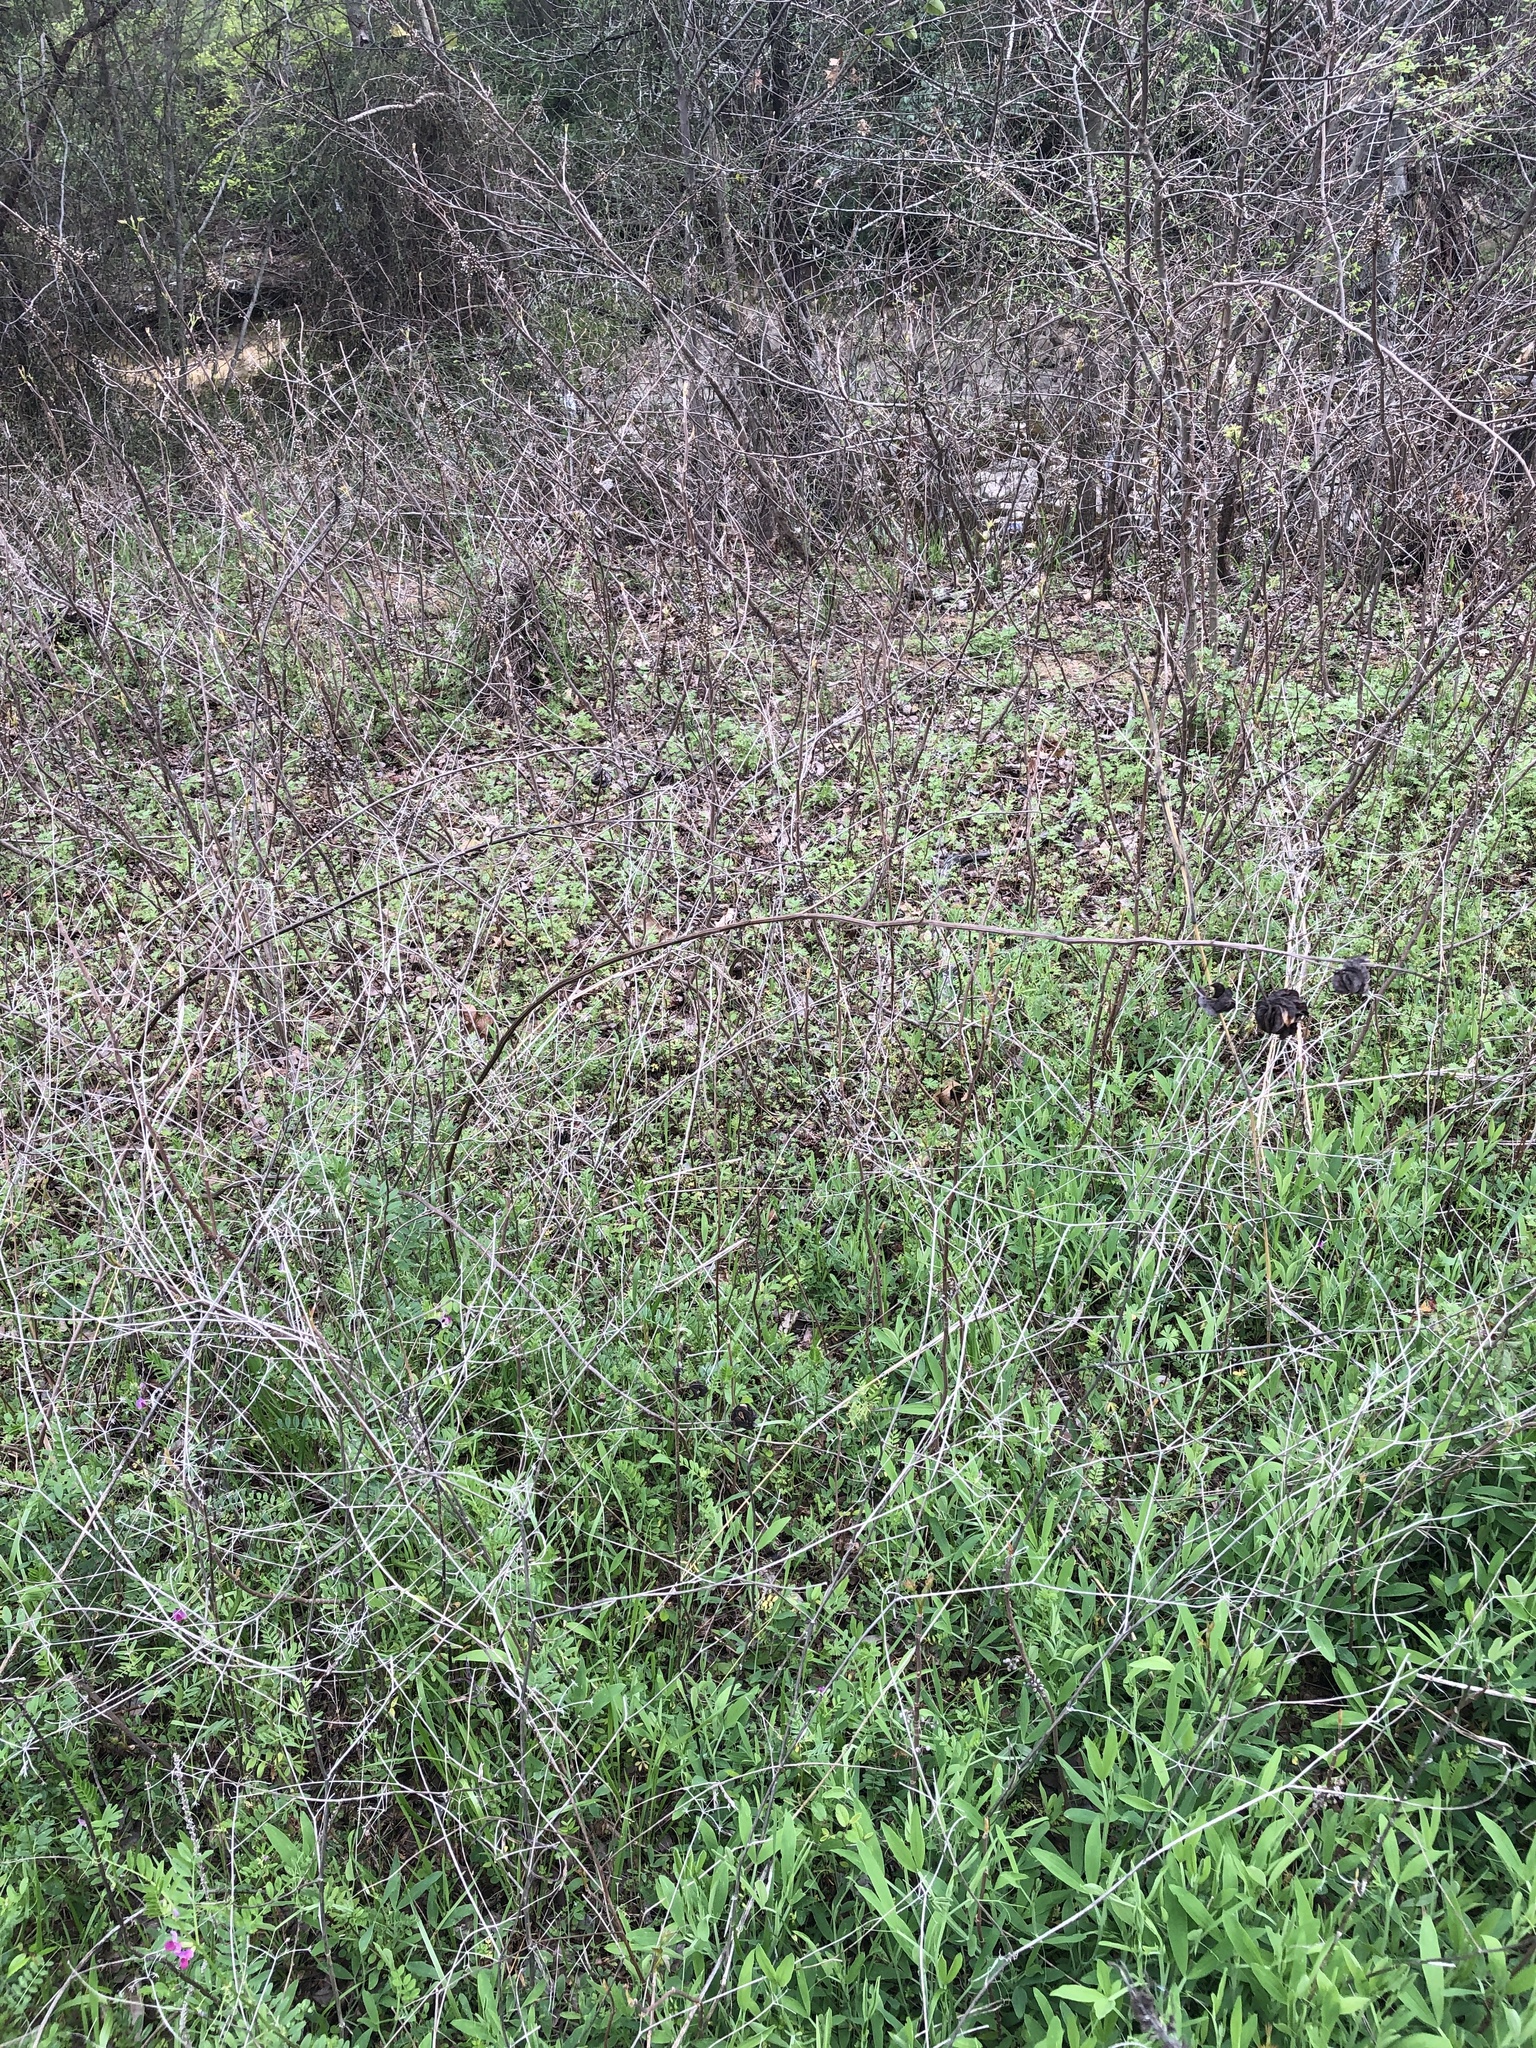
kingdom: Plantae
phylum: Tracheophyta
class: Magnoliopsida
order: Fabales
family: Fabaceae
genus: Desmanthus
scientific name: Desmanthus illinoensis
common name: Illinois bundle-flower
